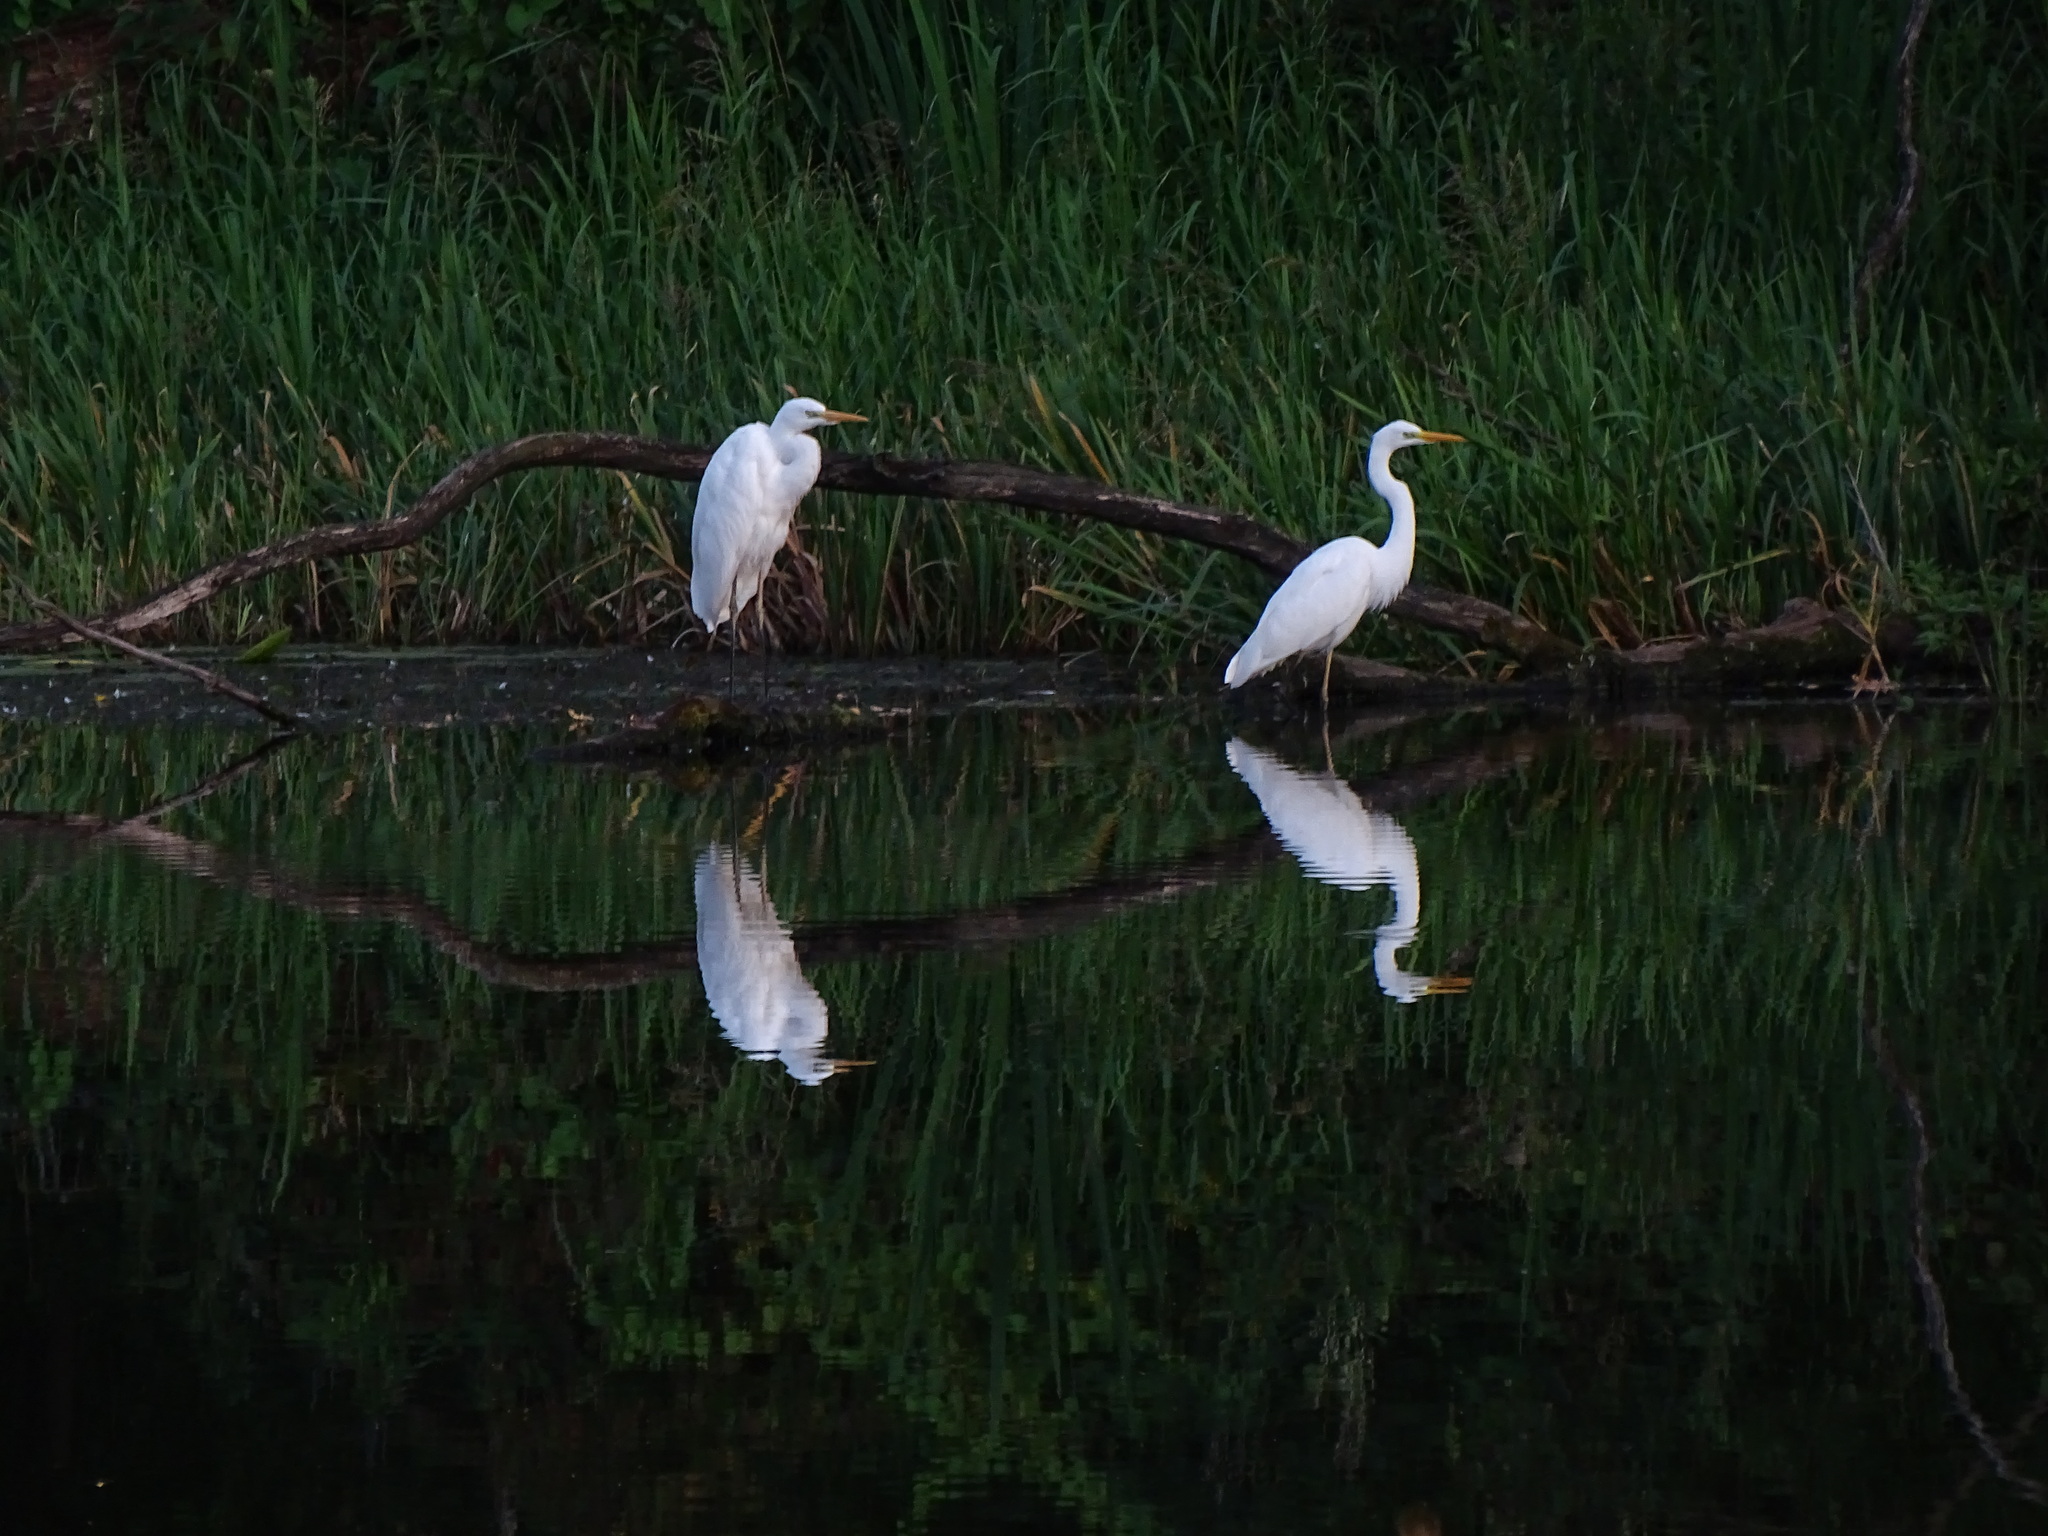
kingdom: Animalia
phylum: Chordata
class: Aves
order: Pelecaniformes
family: Ardeidae
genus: Ardea
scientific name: Ardea alba
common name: Great egret
